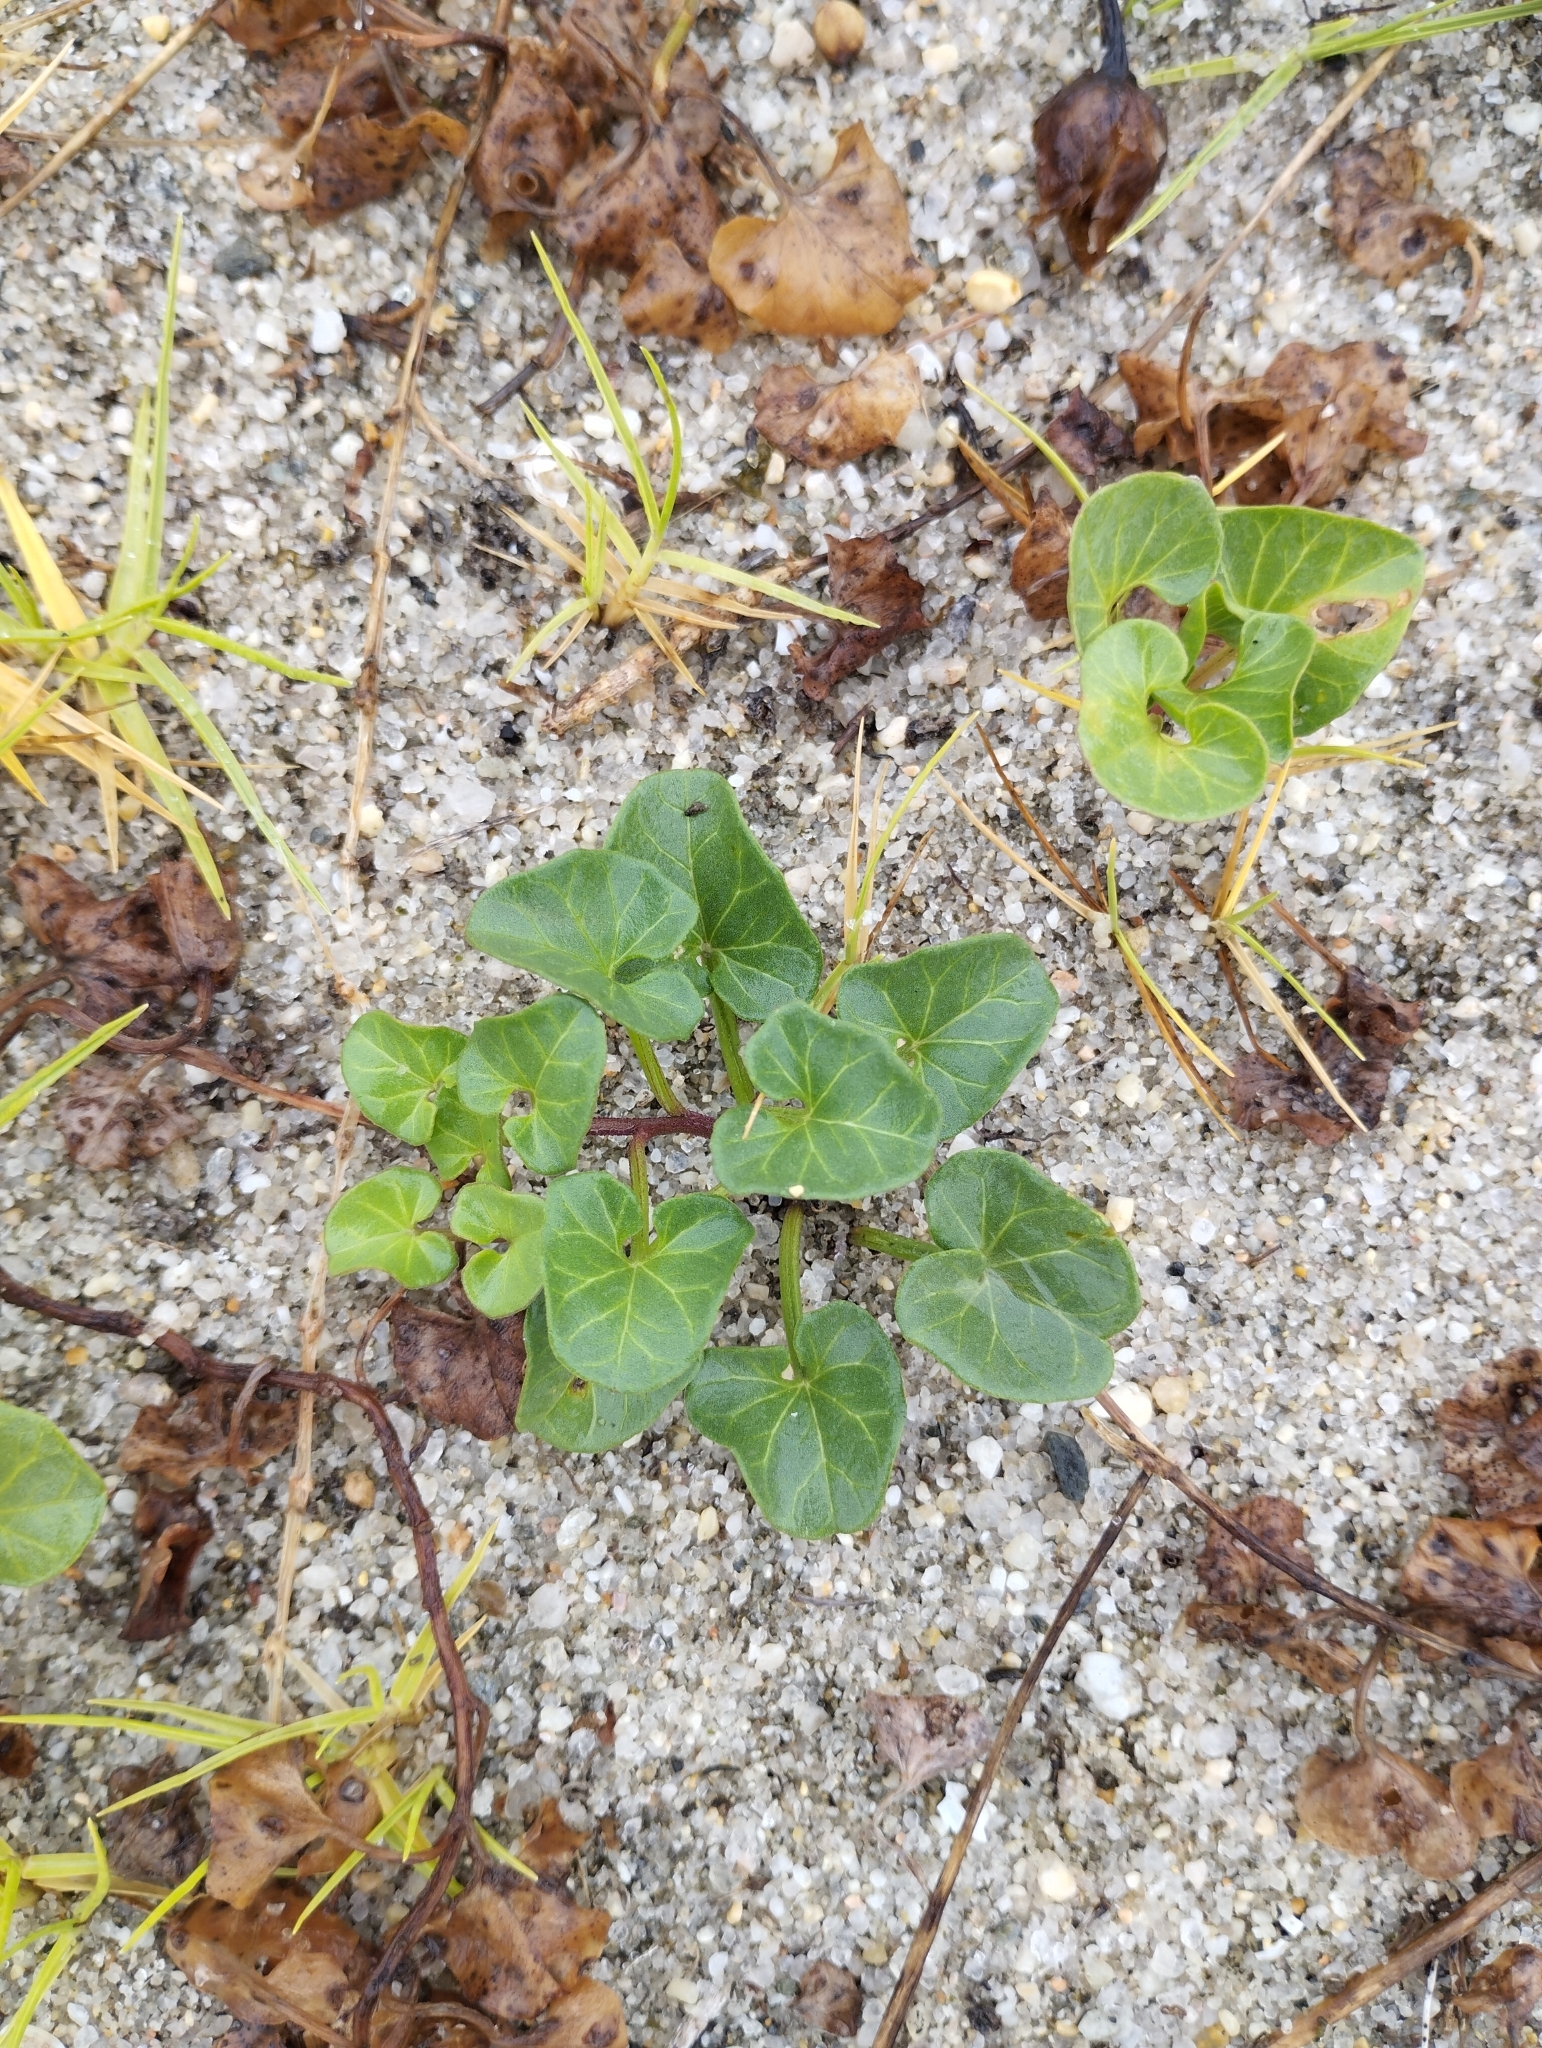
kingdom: Plantae
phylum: Tracheophyta
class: Magnoliopsida
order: Solanales
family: Convolvulaceae
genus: Calystegia
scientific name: Calystegia soldanella
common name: Sea bindweed
